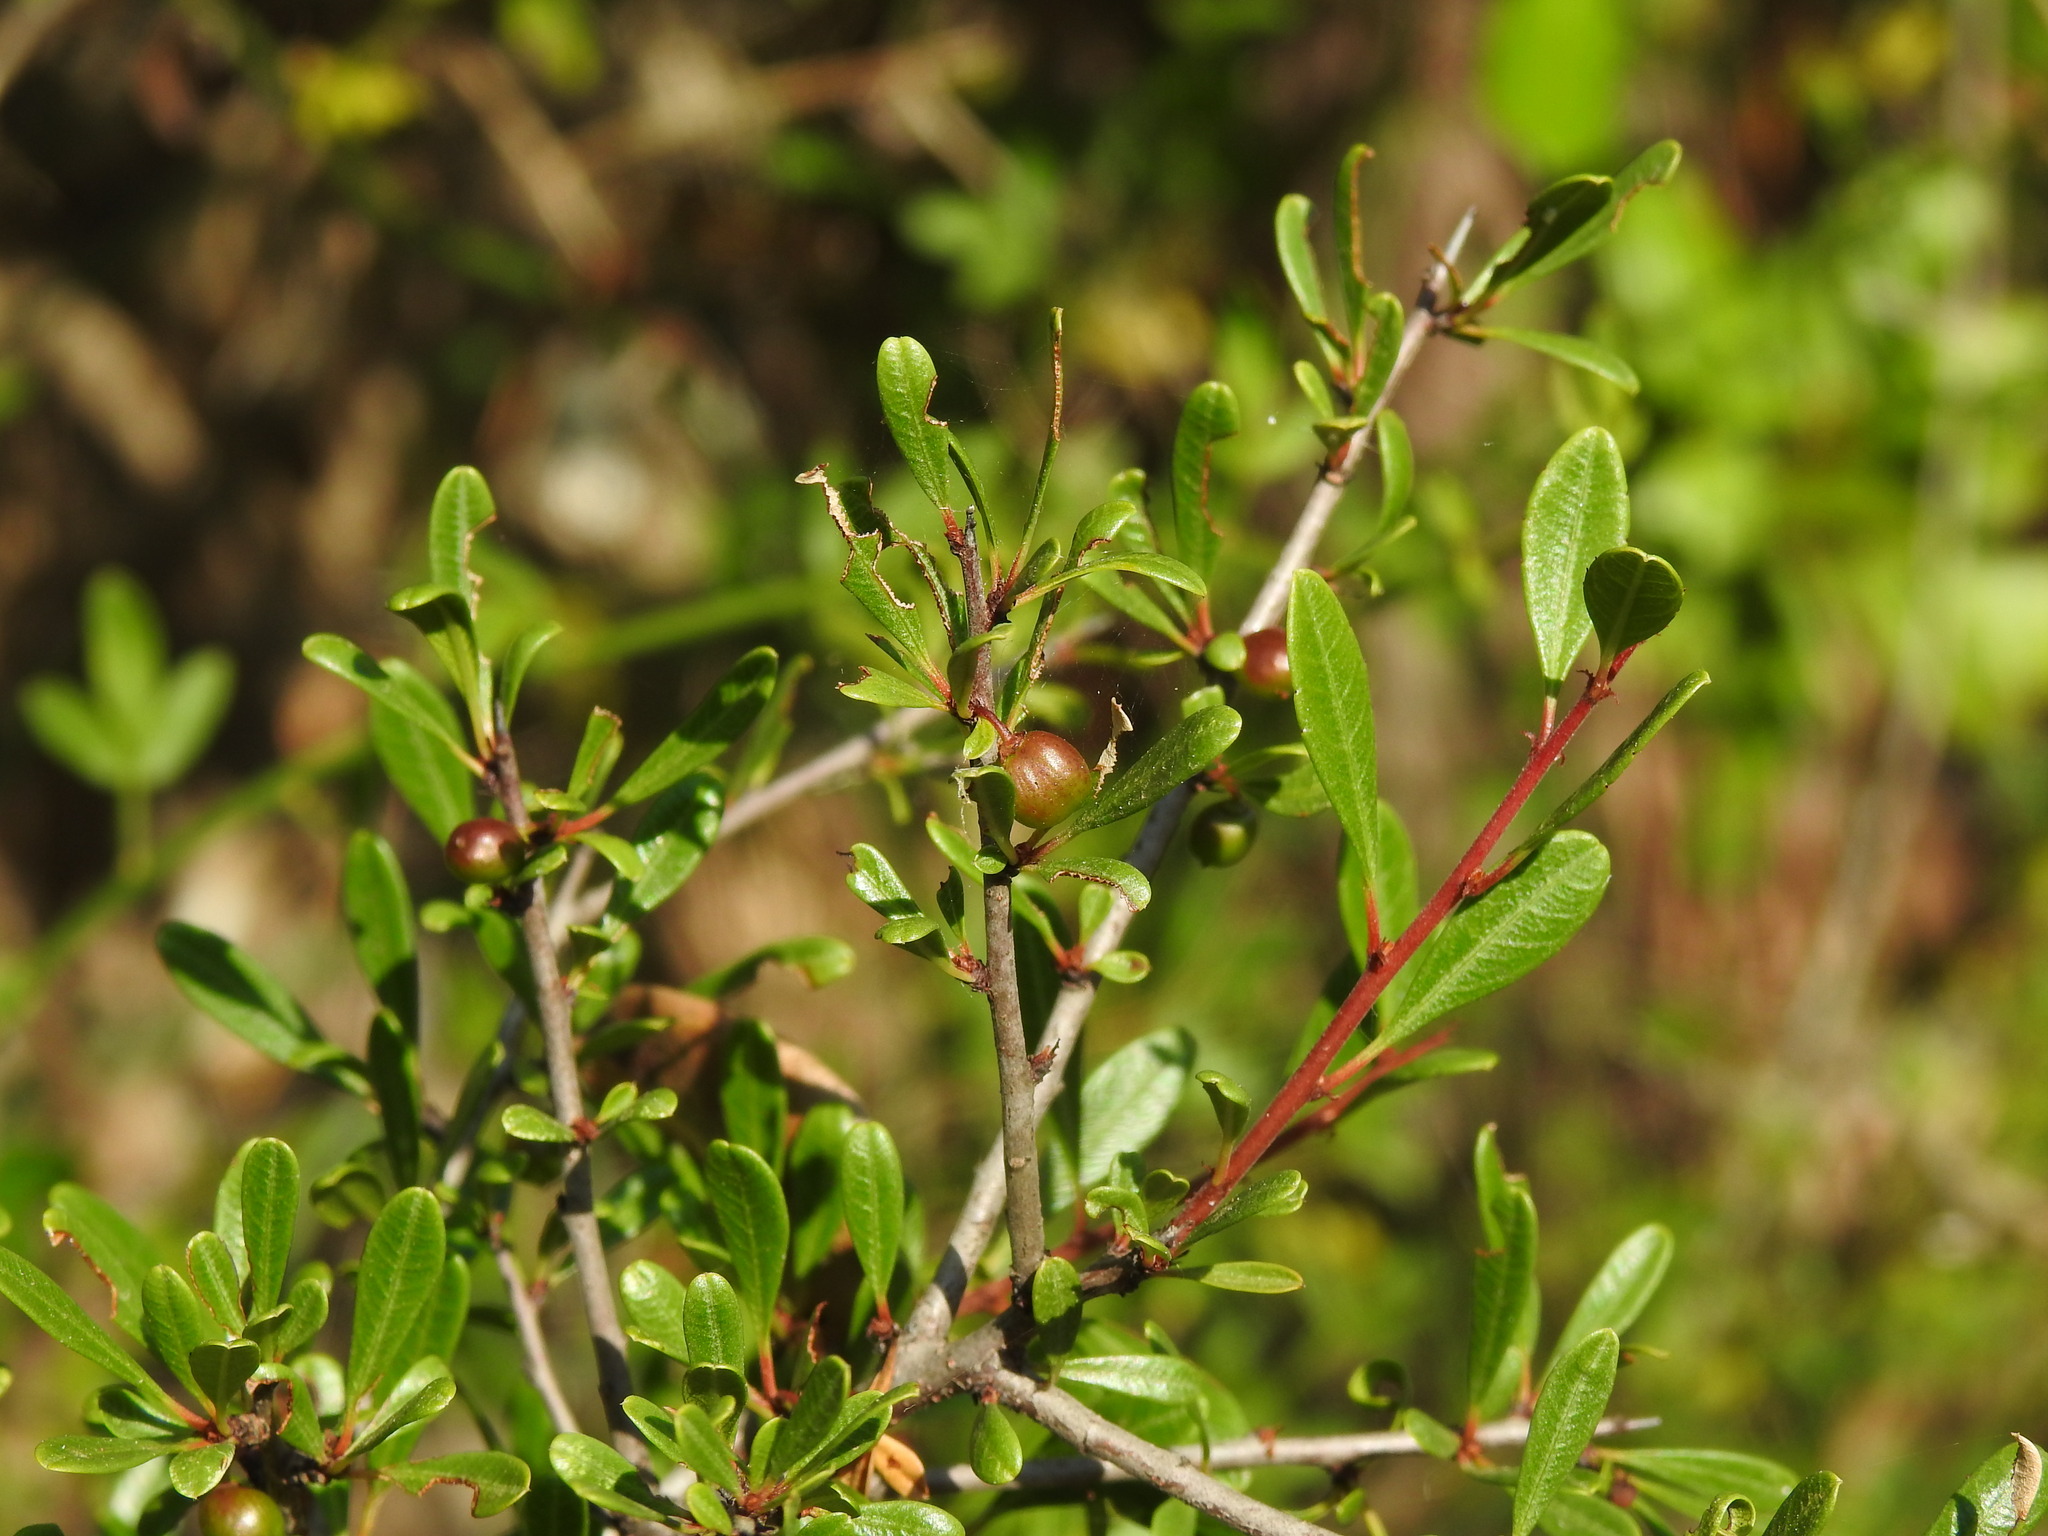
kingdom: Plantae
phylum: Tracheophyta
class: Magnoliopsida
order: Rosales
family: Rhamnaceae
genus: Rhamnus
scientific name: Rhamnus oleoides
